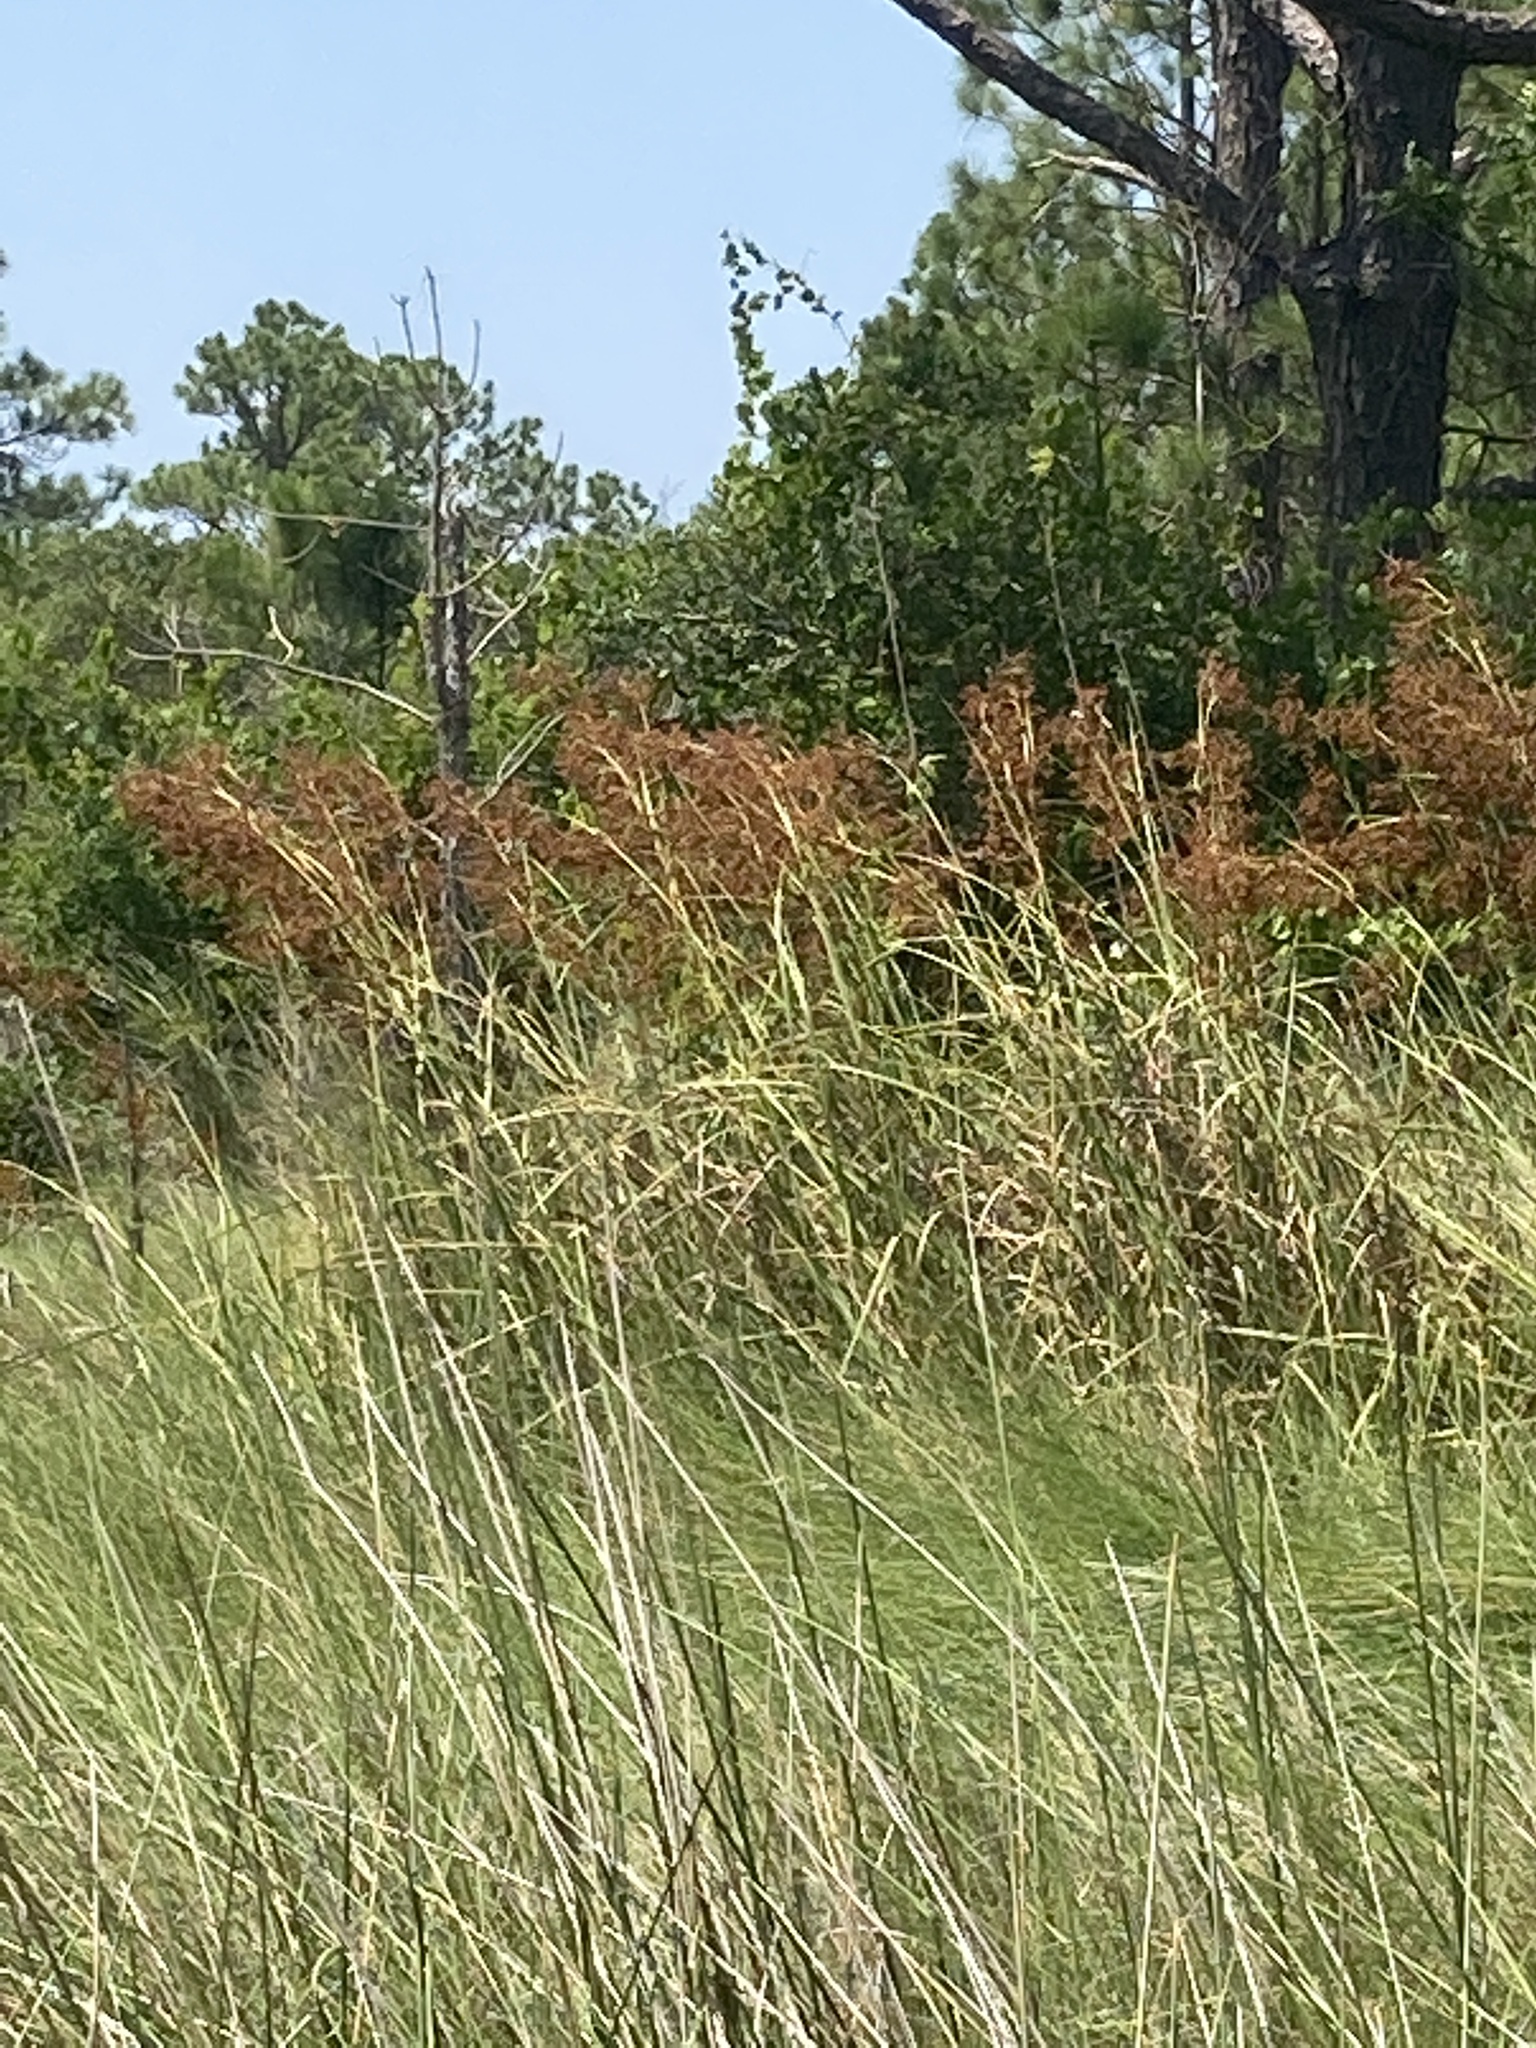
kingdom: Plantae
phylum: Tracheophyta
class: Liliopsida
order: Poales
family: Cyperaceae
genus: Cladium
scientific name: Cladium mariscus
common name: Great fen-sedge
